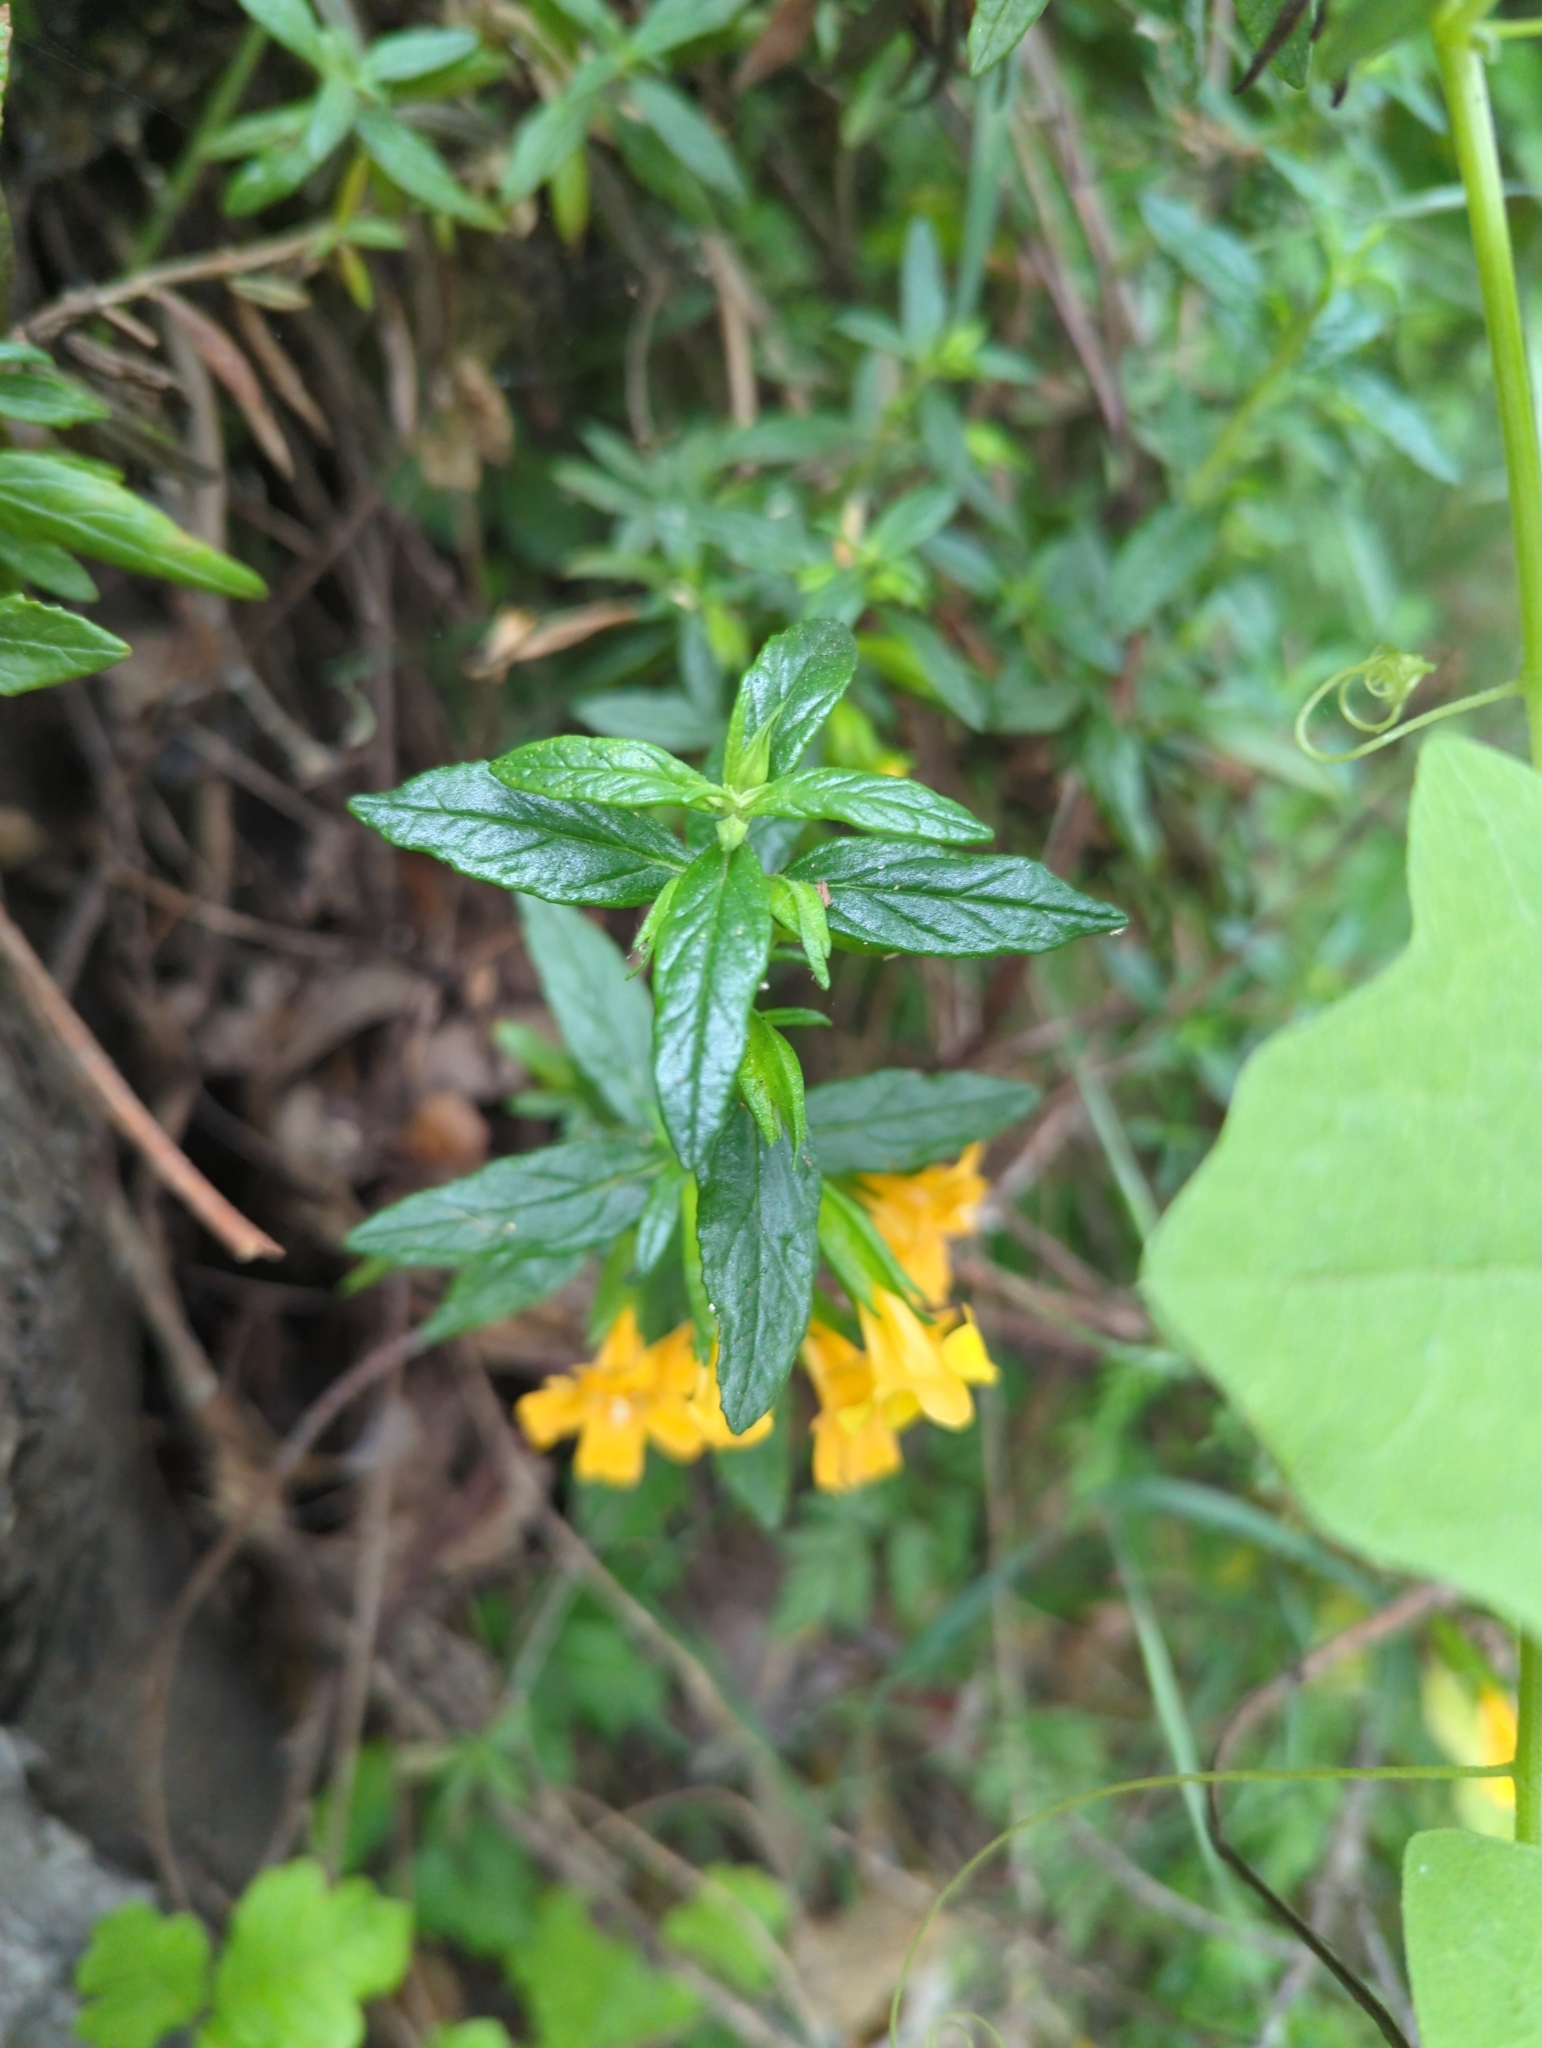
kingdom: Plantae
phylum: Tracheophyta
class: Magnoliopsida
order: Lamiales
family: Phrymaceae
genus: Diplacus
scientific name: Diplacus aurantiacus
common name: Bush monkey-flower
